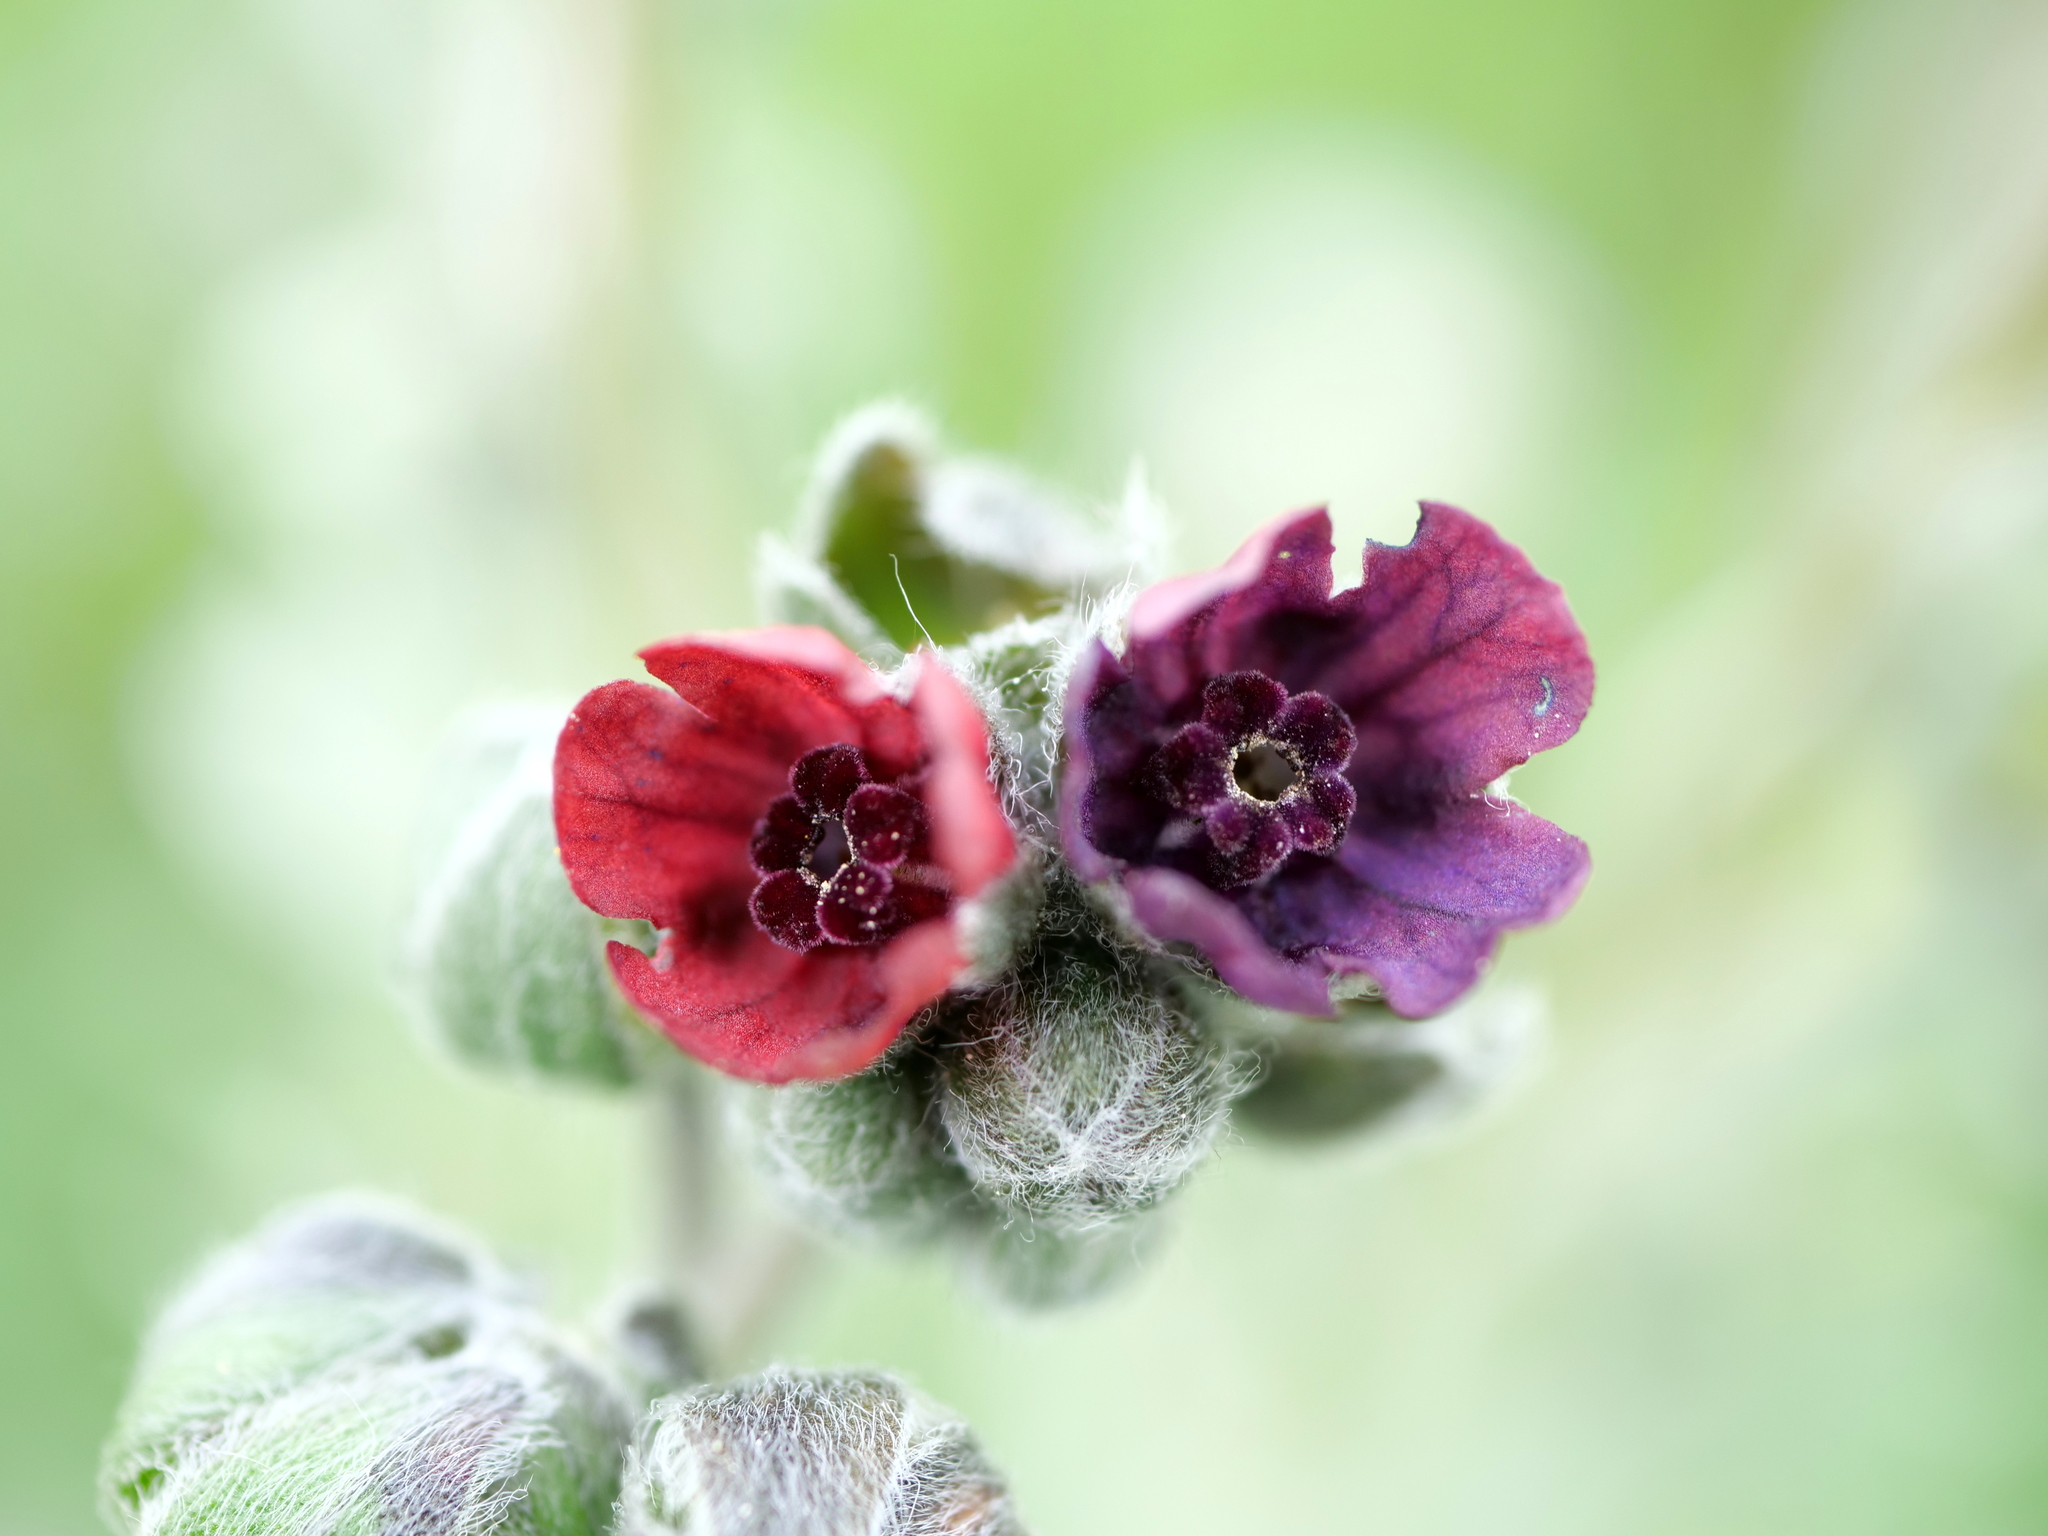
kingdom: Plantae
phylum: Tracheophyta
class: Magnoliopsida
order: Boraginales
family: Boraginaceae
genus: Cynoglossum
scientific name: Cynoglossum officinale
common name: Hound's-tongue
